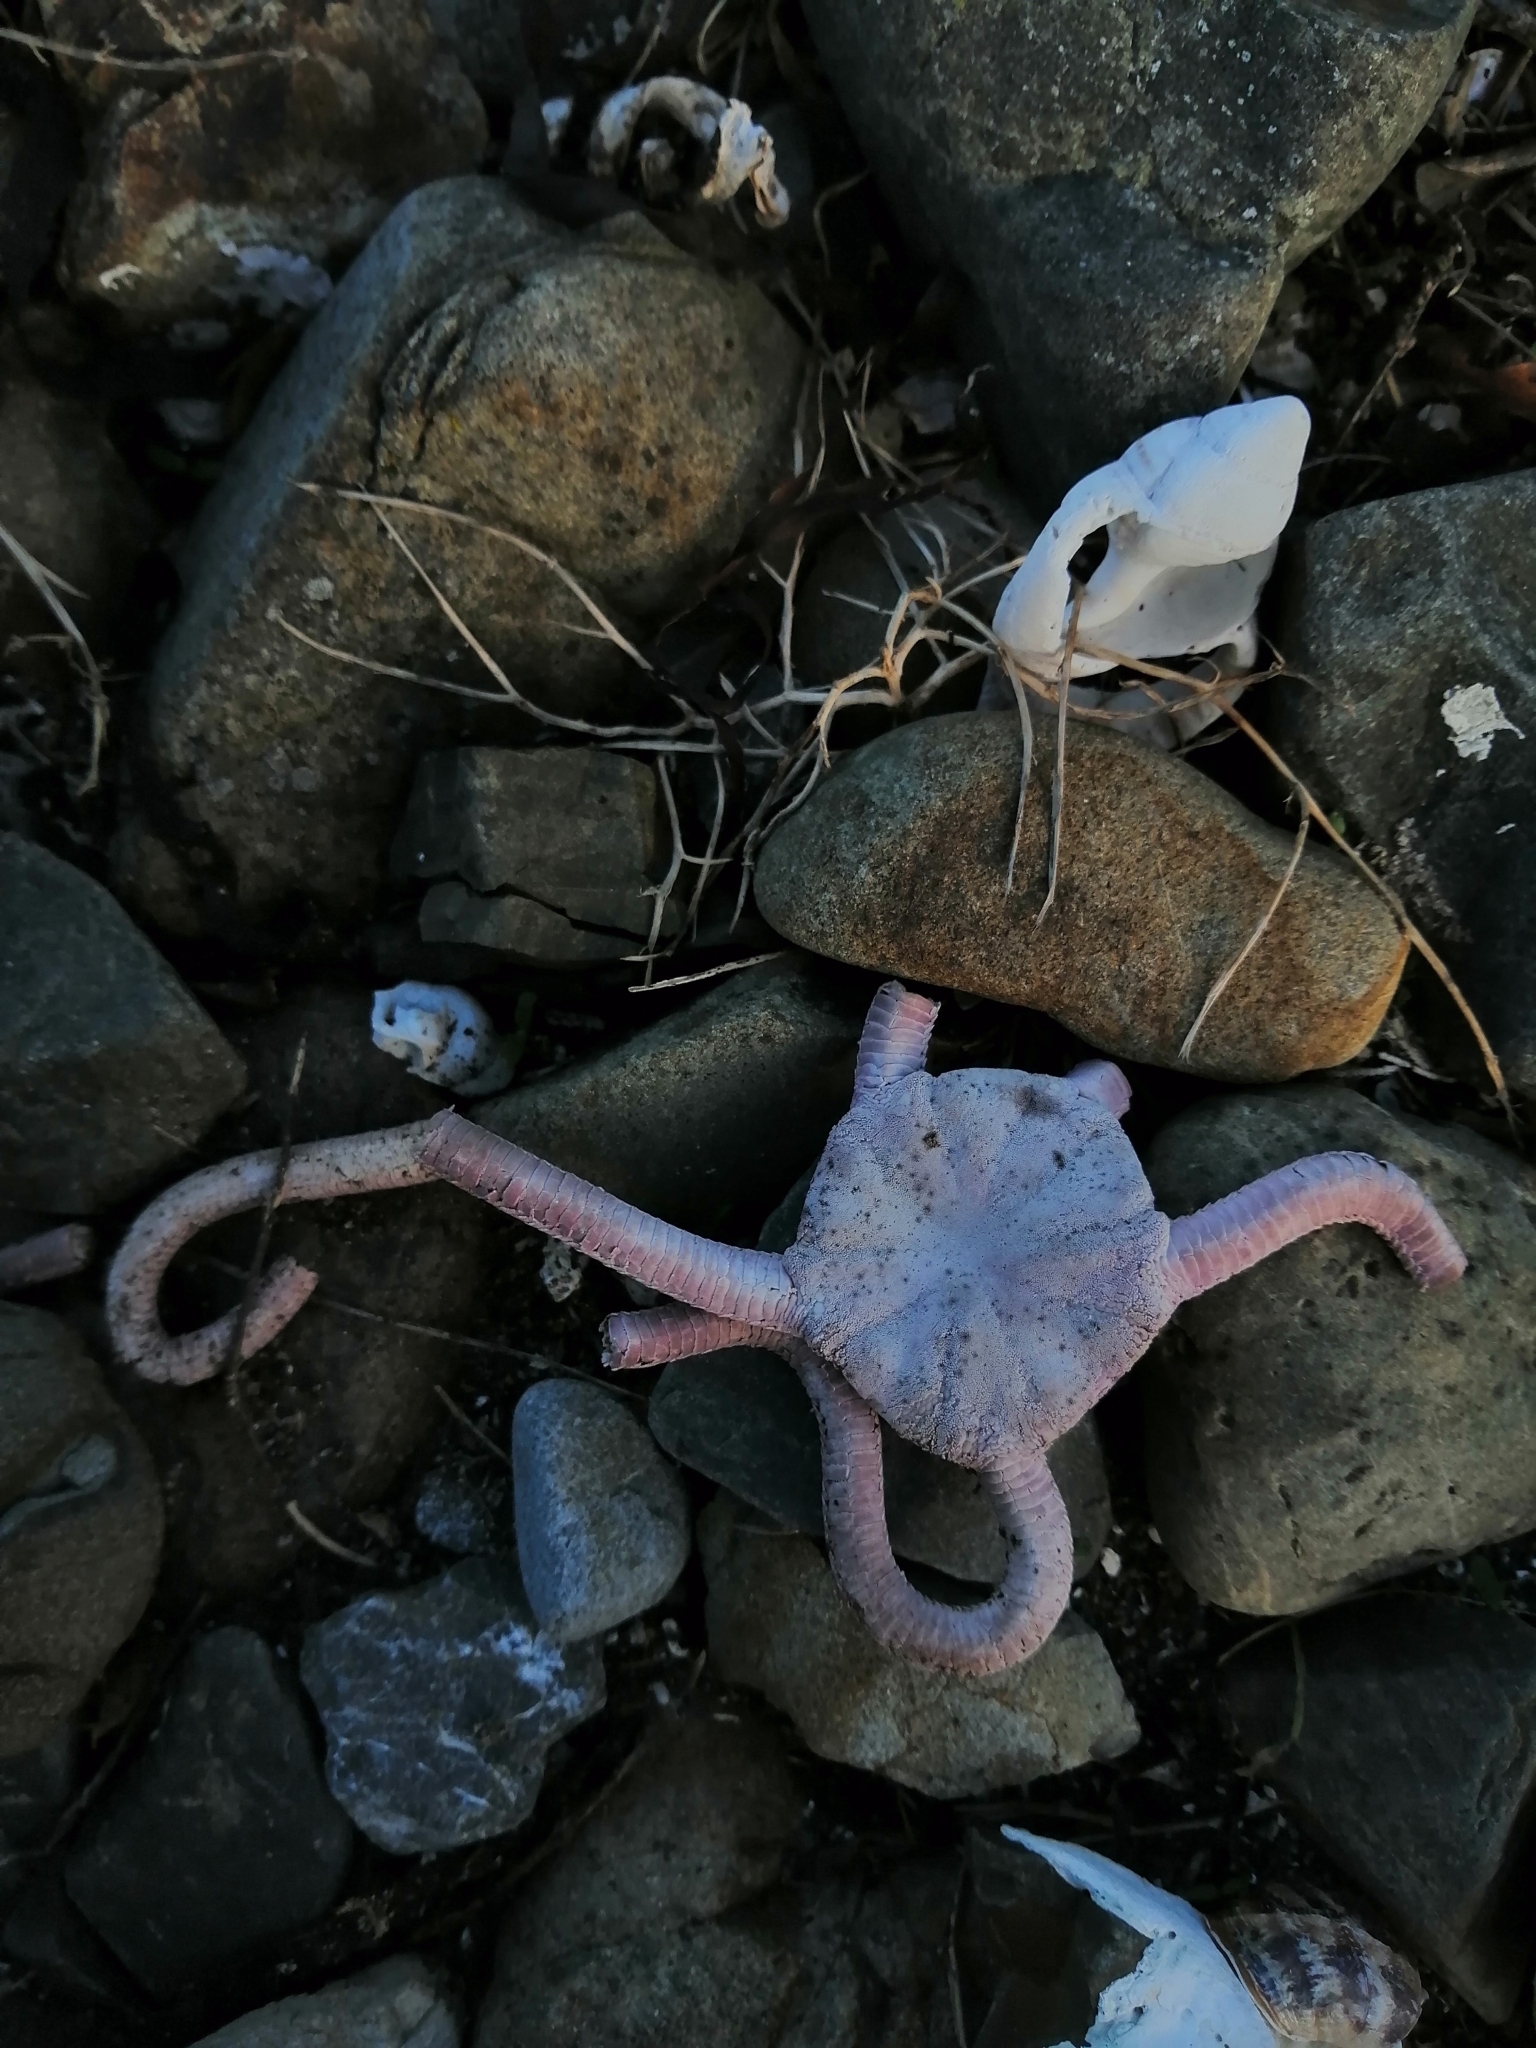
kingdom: Animalia
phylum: Echinodermata
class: Ophiuroidea
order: Ophiacanthida
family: Ophiodermatidae
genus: Ophiopsammus
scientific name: Ophiopsammus maculata
